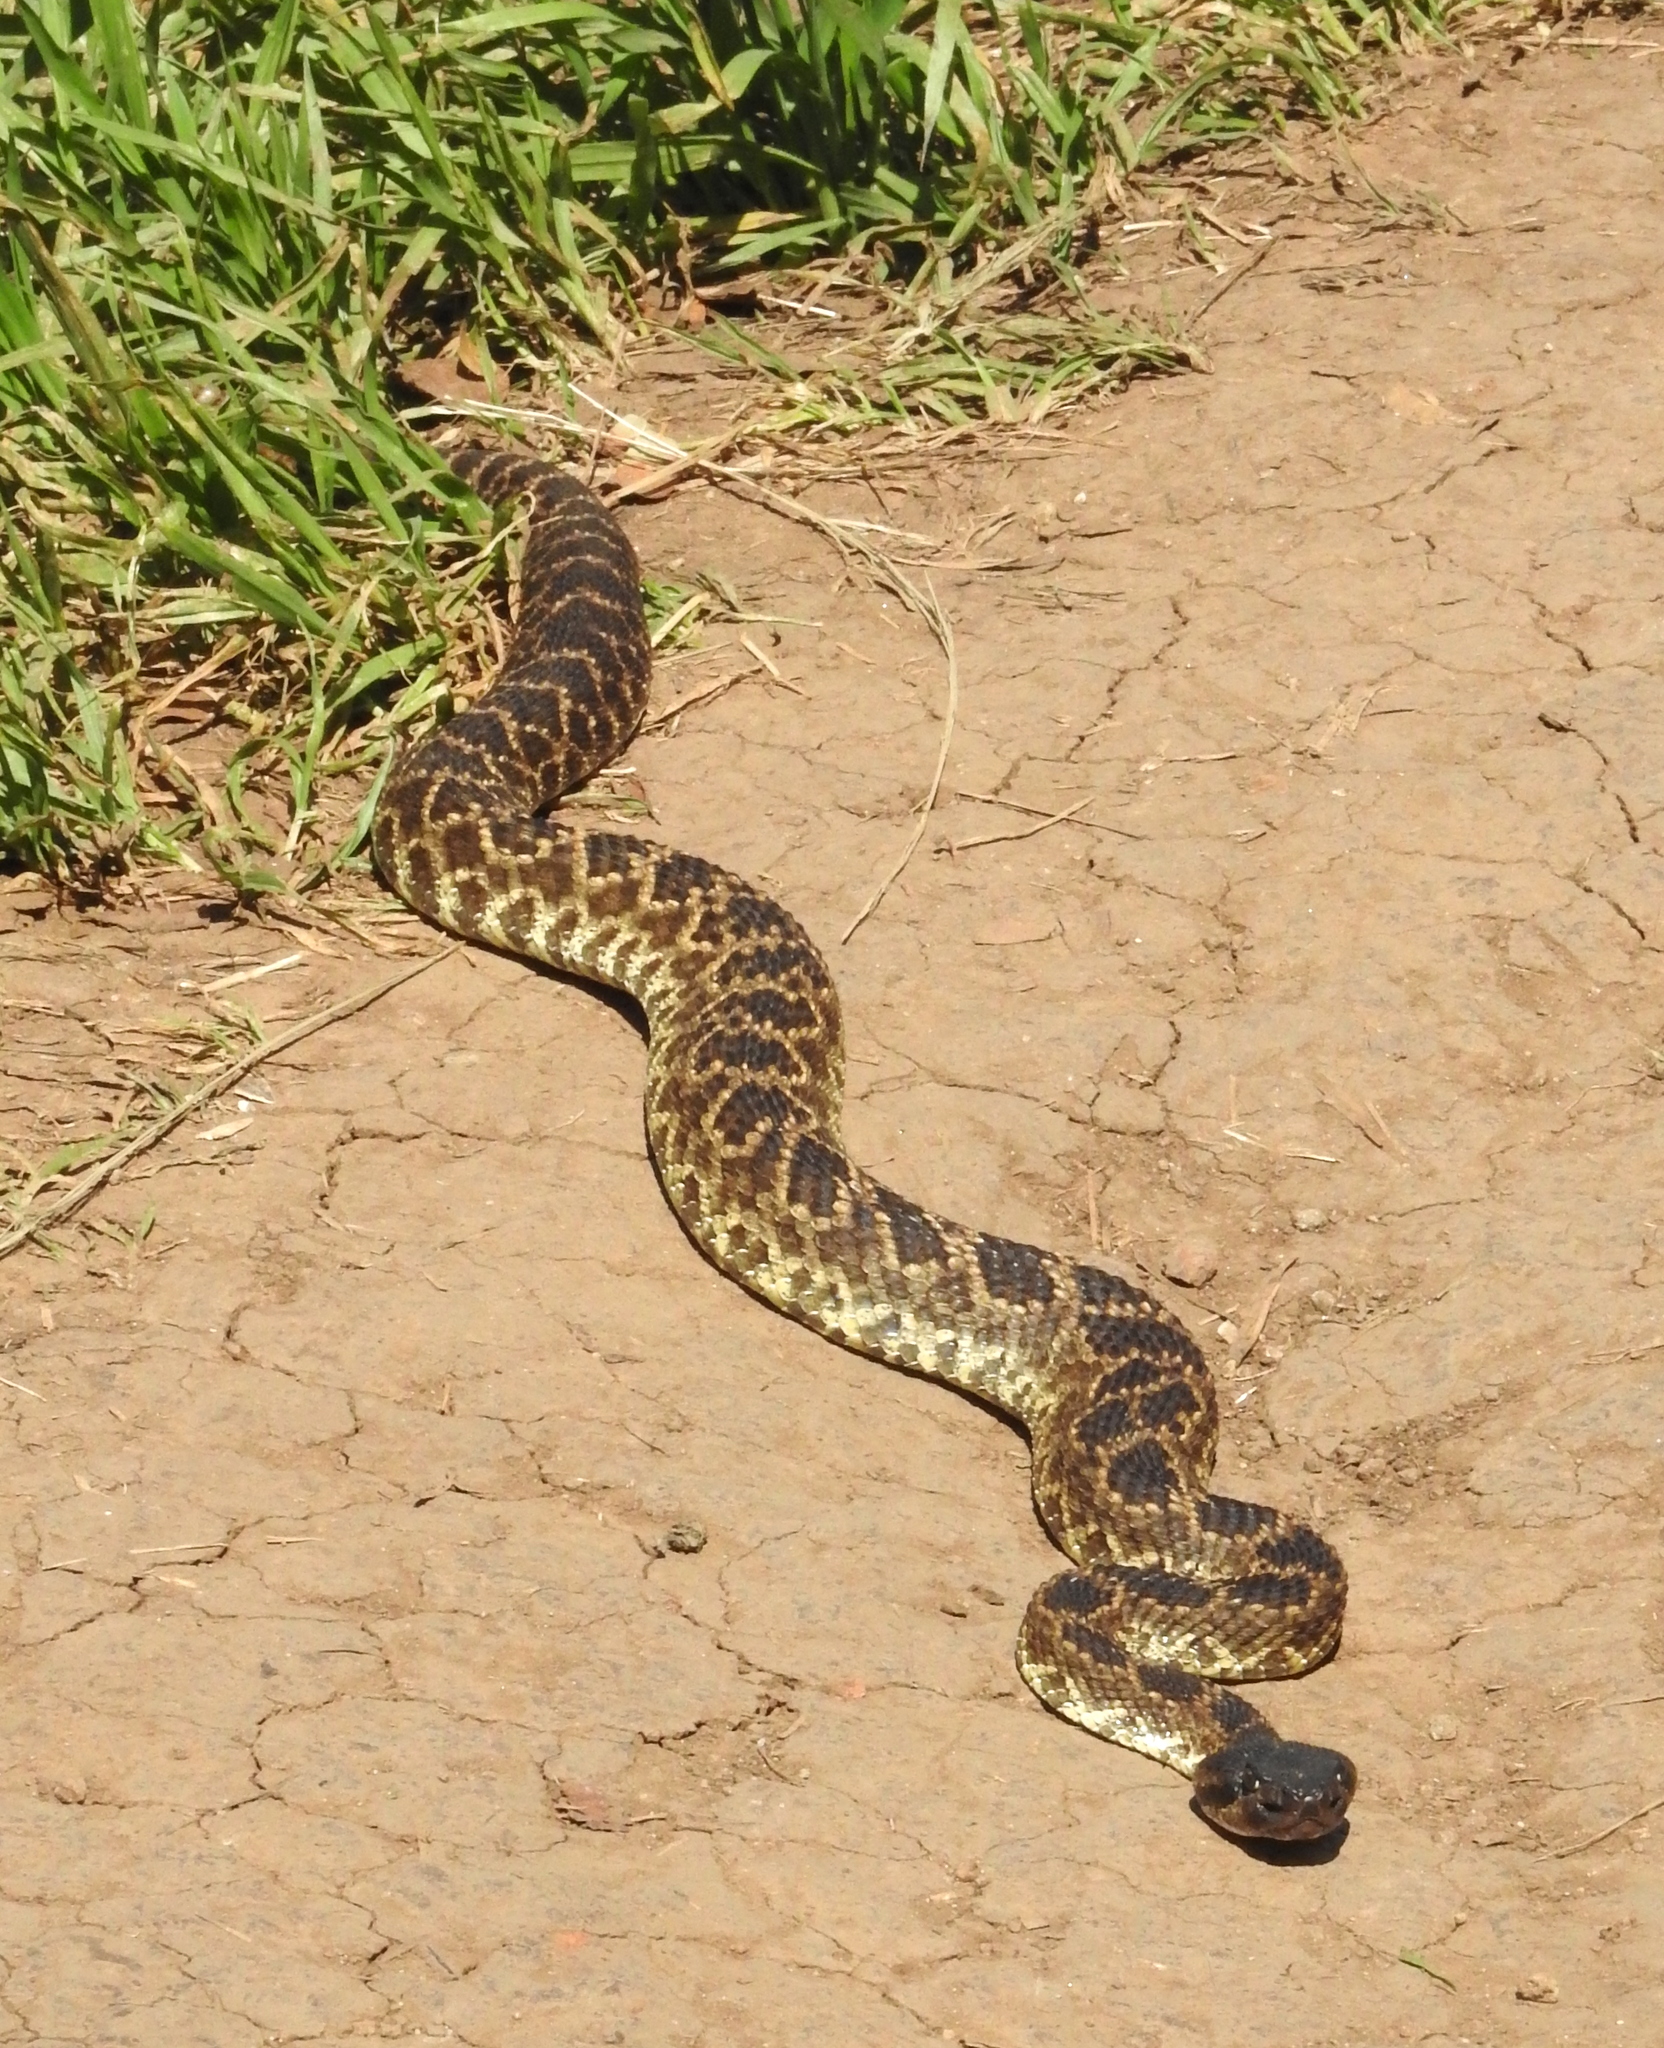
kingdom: Animalia
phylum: Chordata
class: Squamata
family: Viperidae
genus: Crotalus
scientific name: Crotalus oreganus
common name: Abyssus
